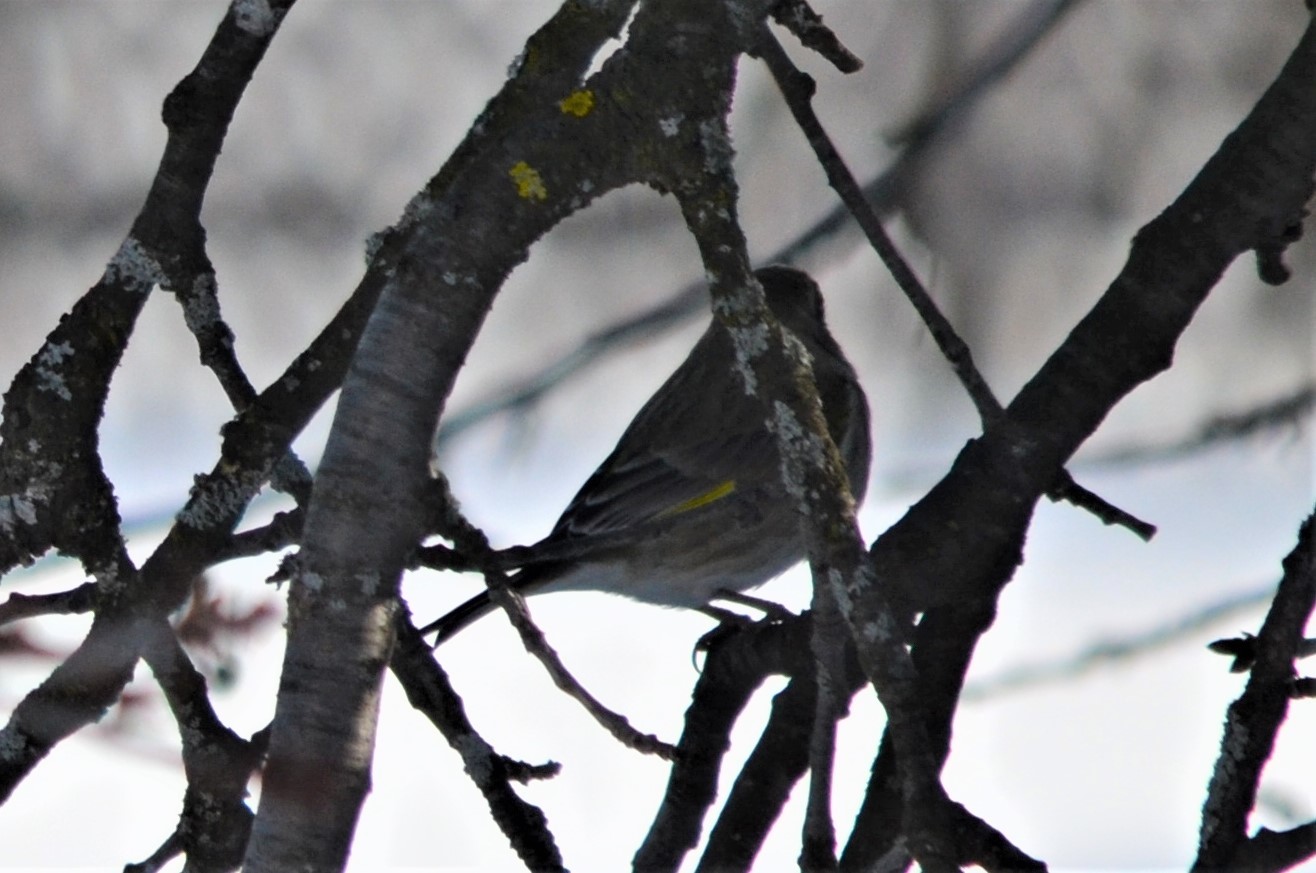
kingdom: Plantae
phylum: Tracheophyta
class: Liliopsida
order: Poales
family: Poaceae
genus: Chloris
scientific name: Chloris chloris
